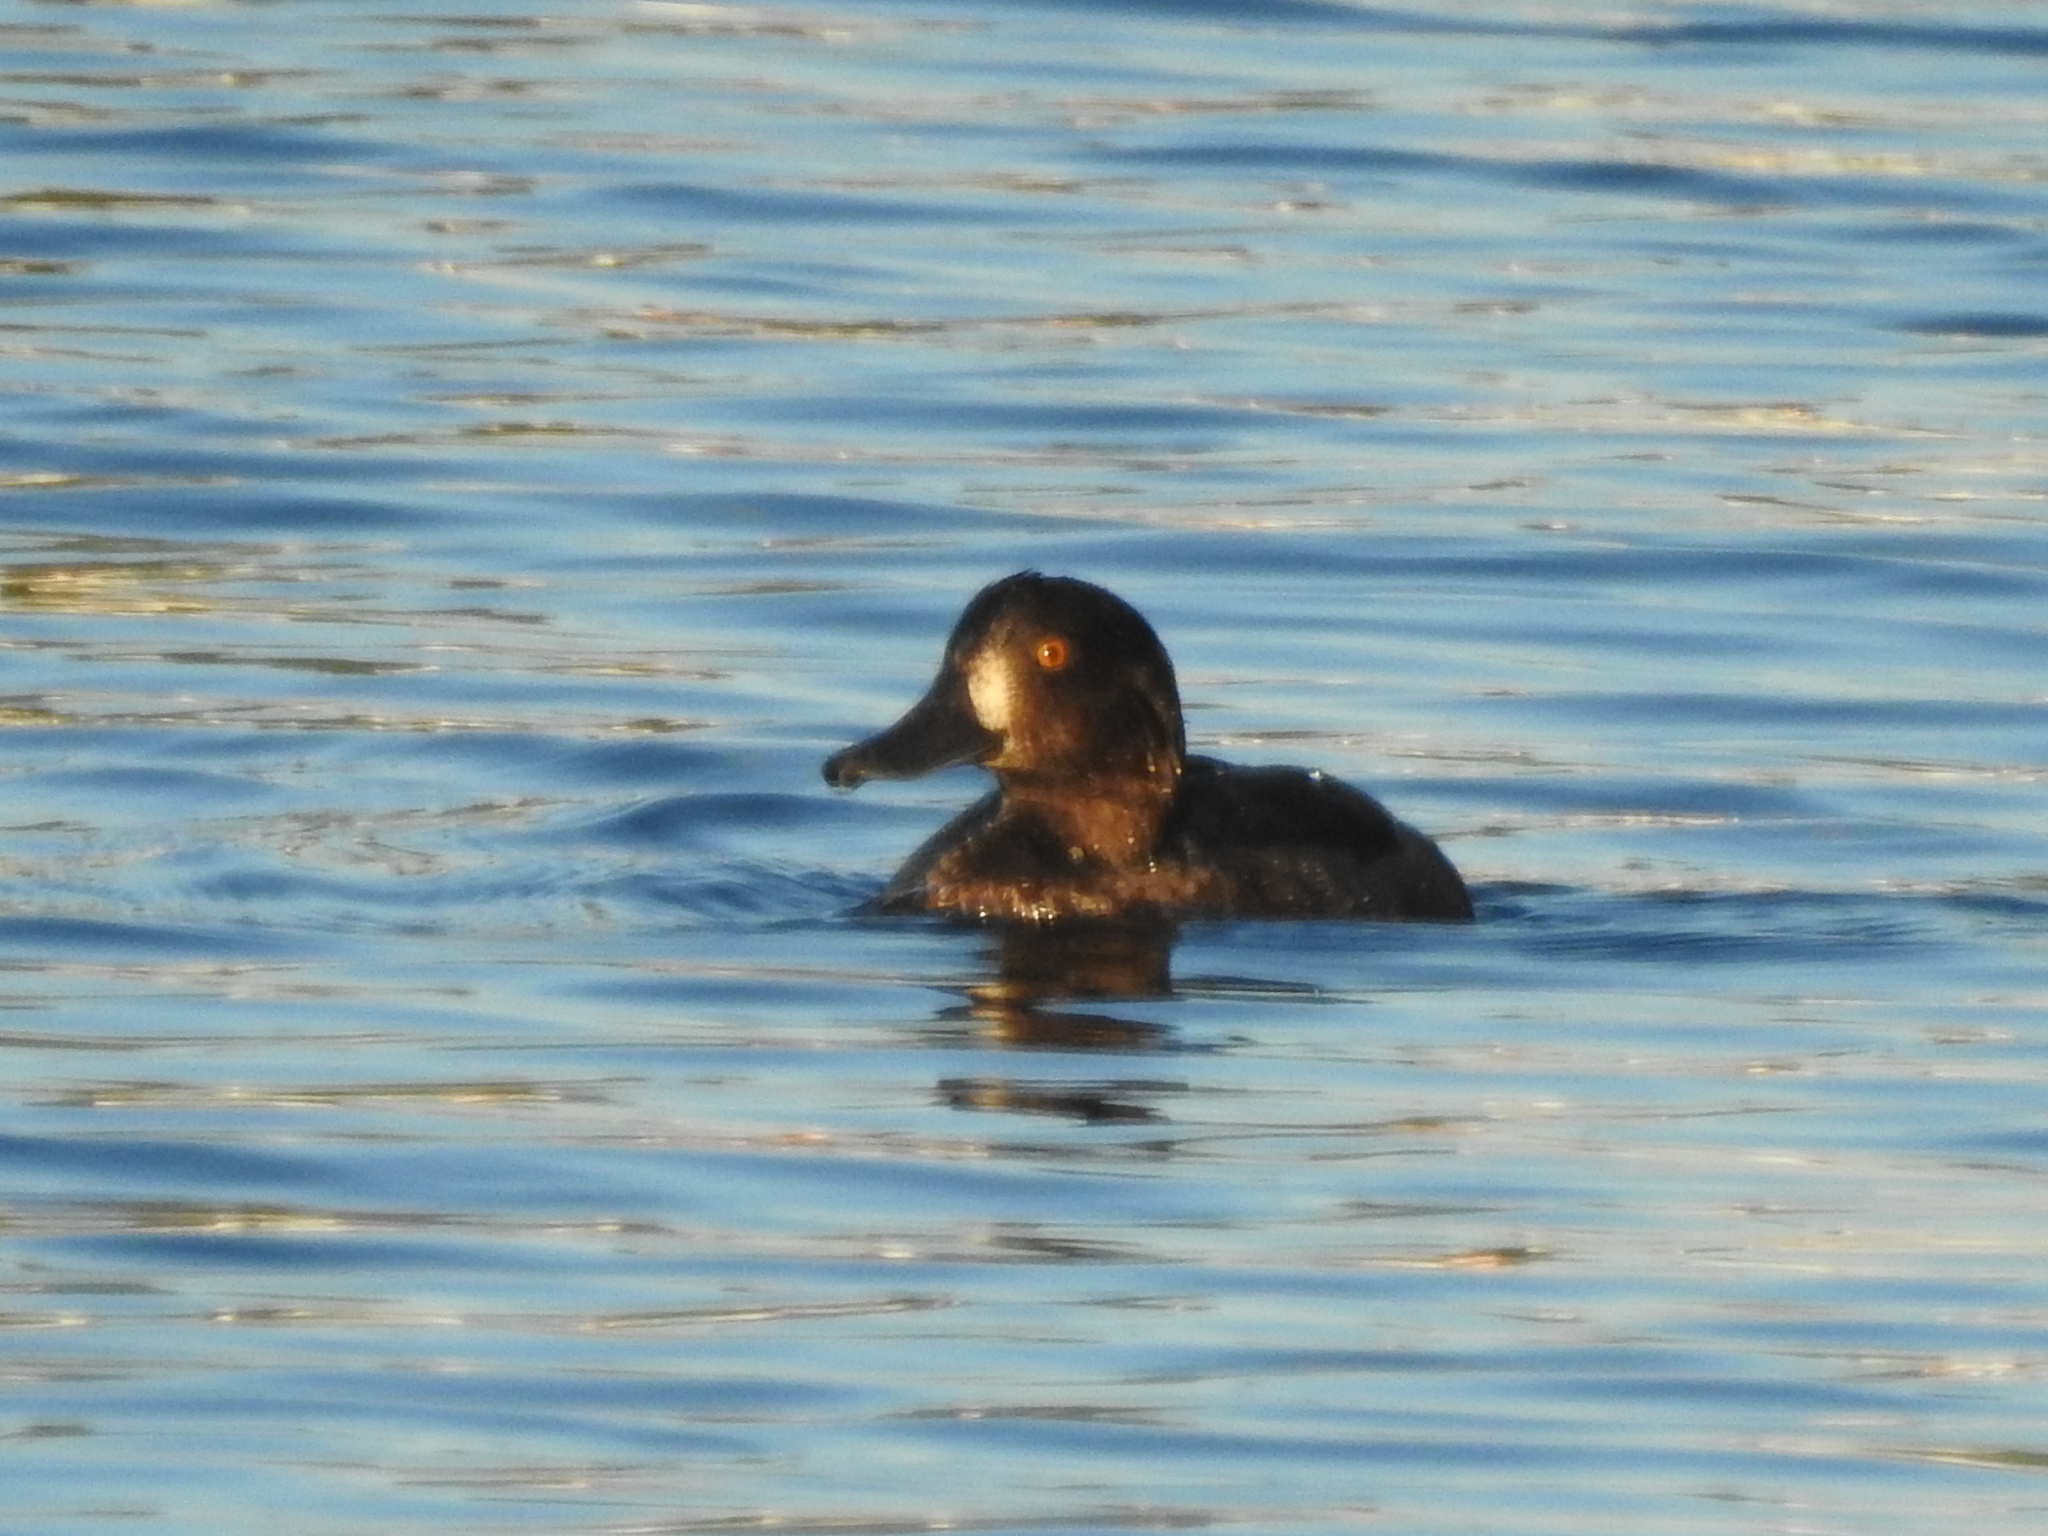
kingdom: Animalia
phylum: Chordata
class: Aves
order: Anseriformes
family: Anatidae
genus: Aythya
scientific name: Aythya fuligula
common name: Tufted duck
